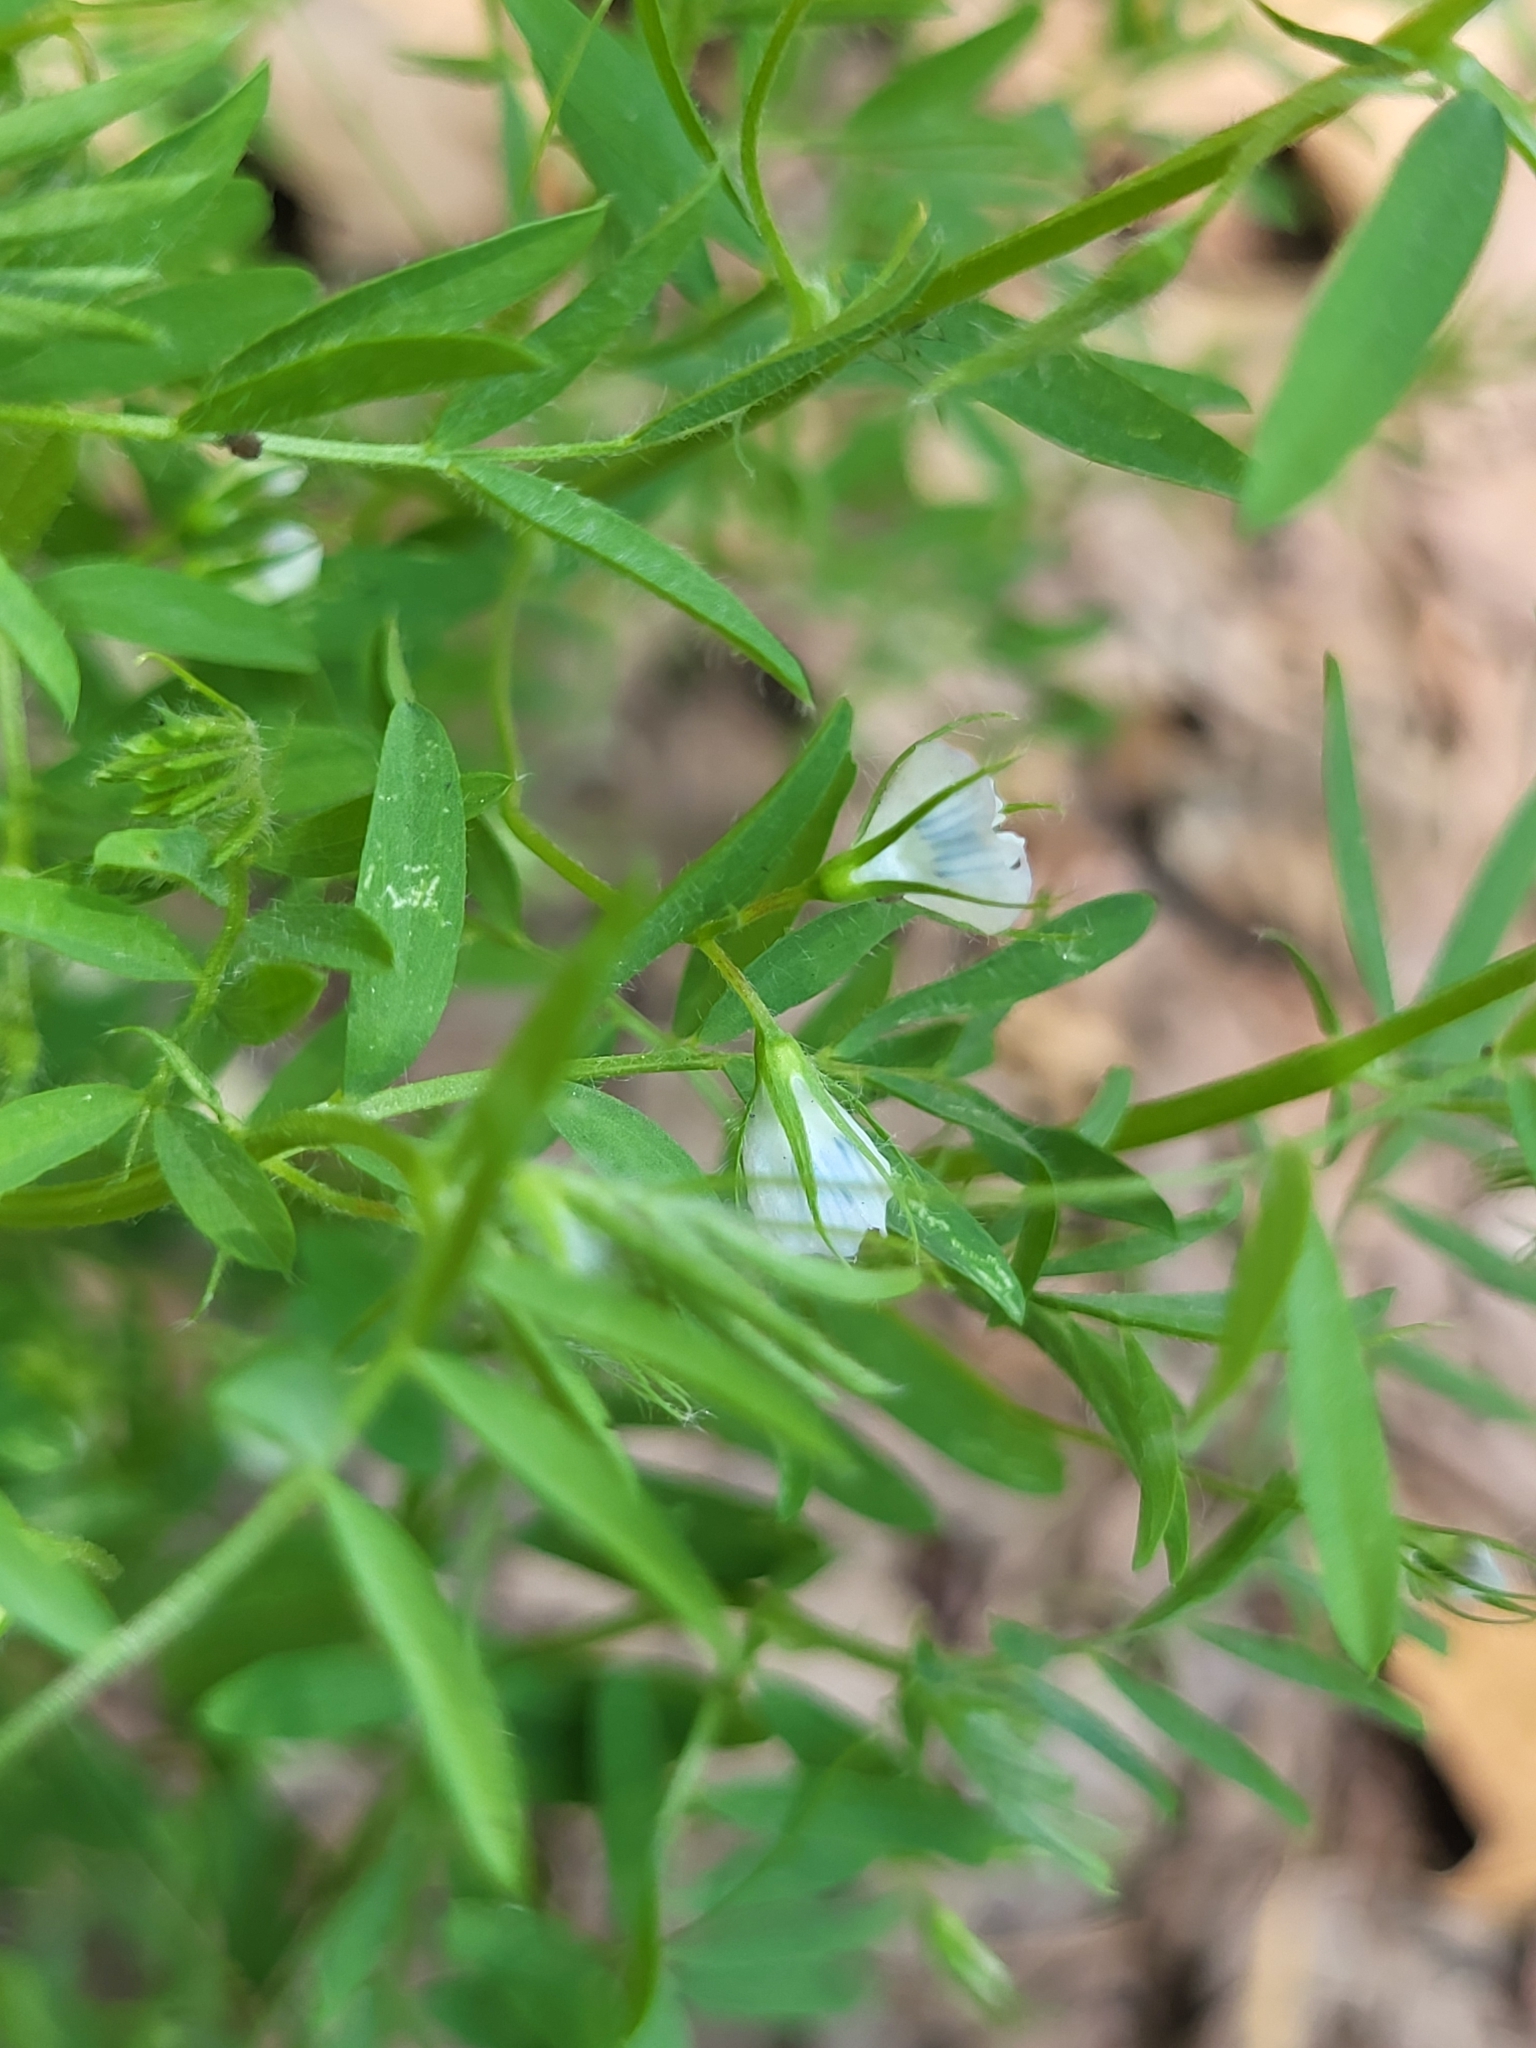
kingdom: Plantae
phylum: Tracheophyta
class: Magnoliopsida
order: Fabales
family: Fabaceae
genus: Vicia
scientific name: Vicia lens
